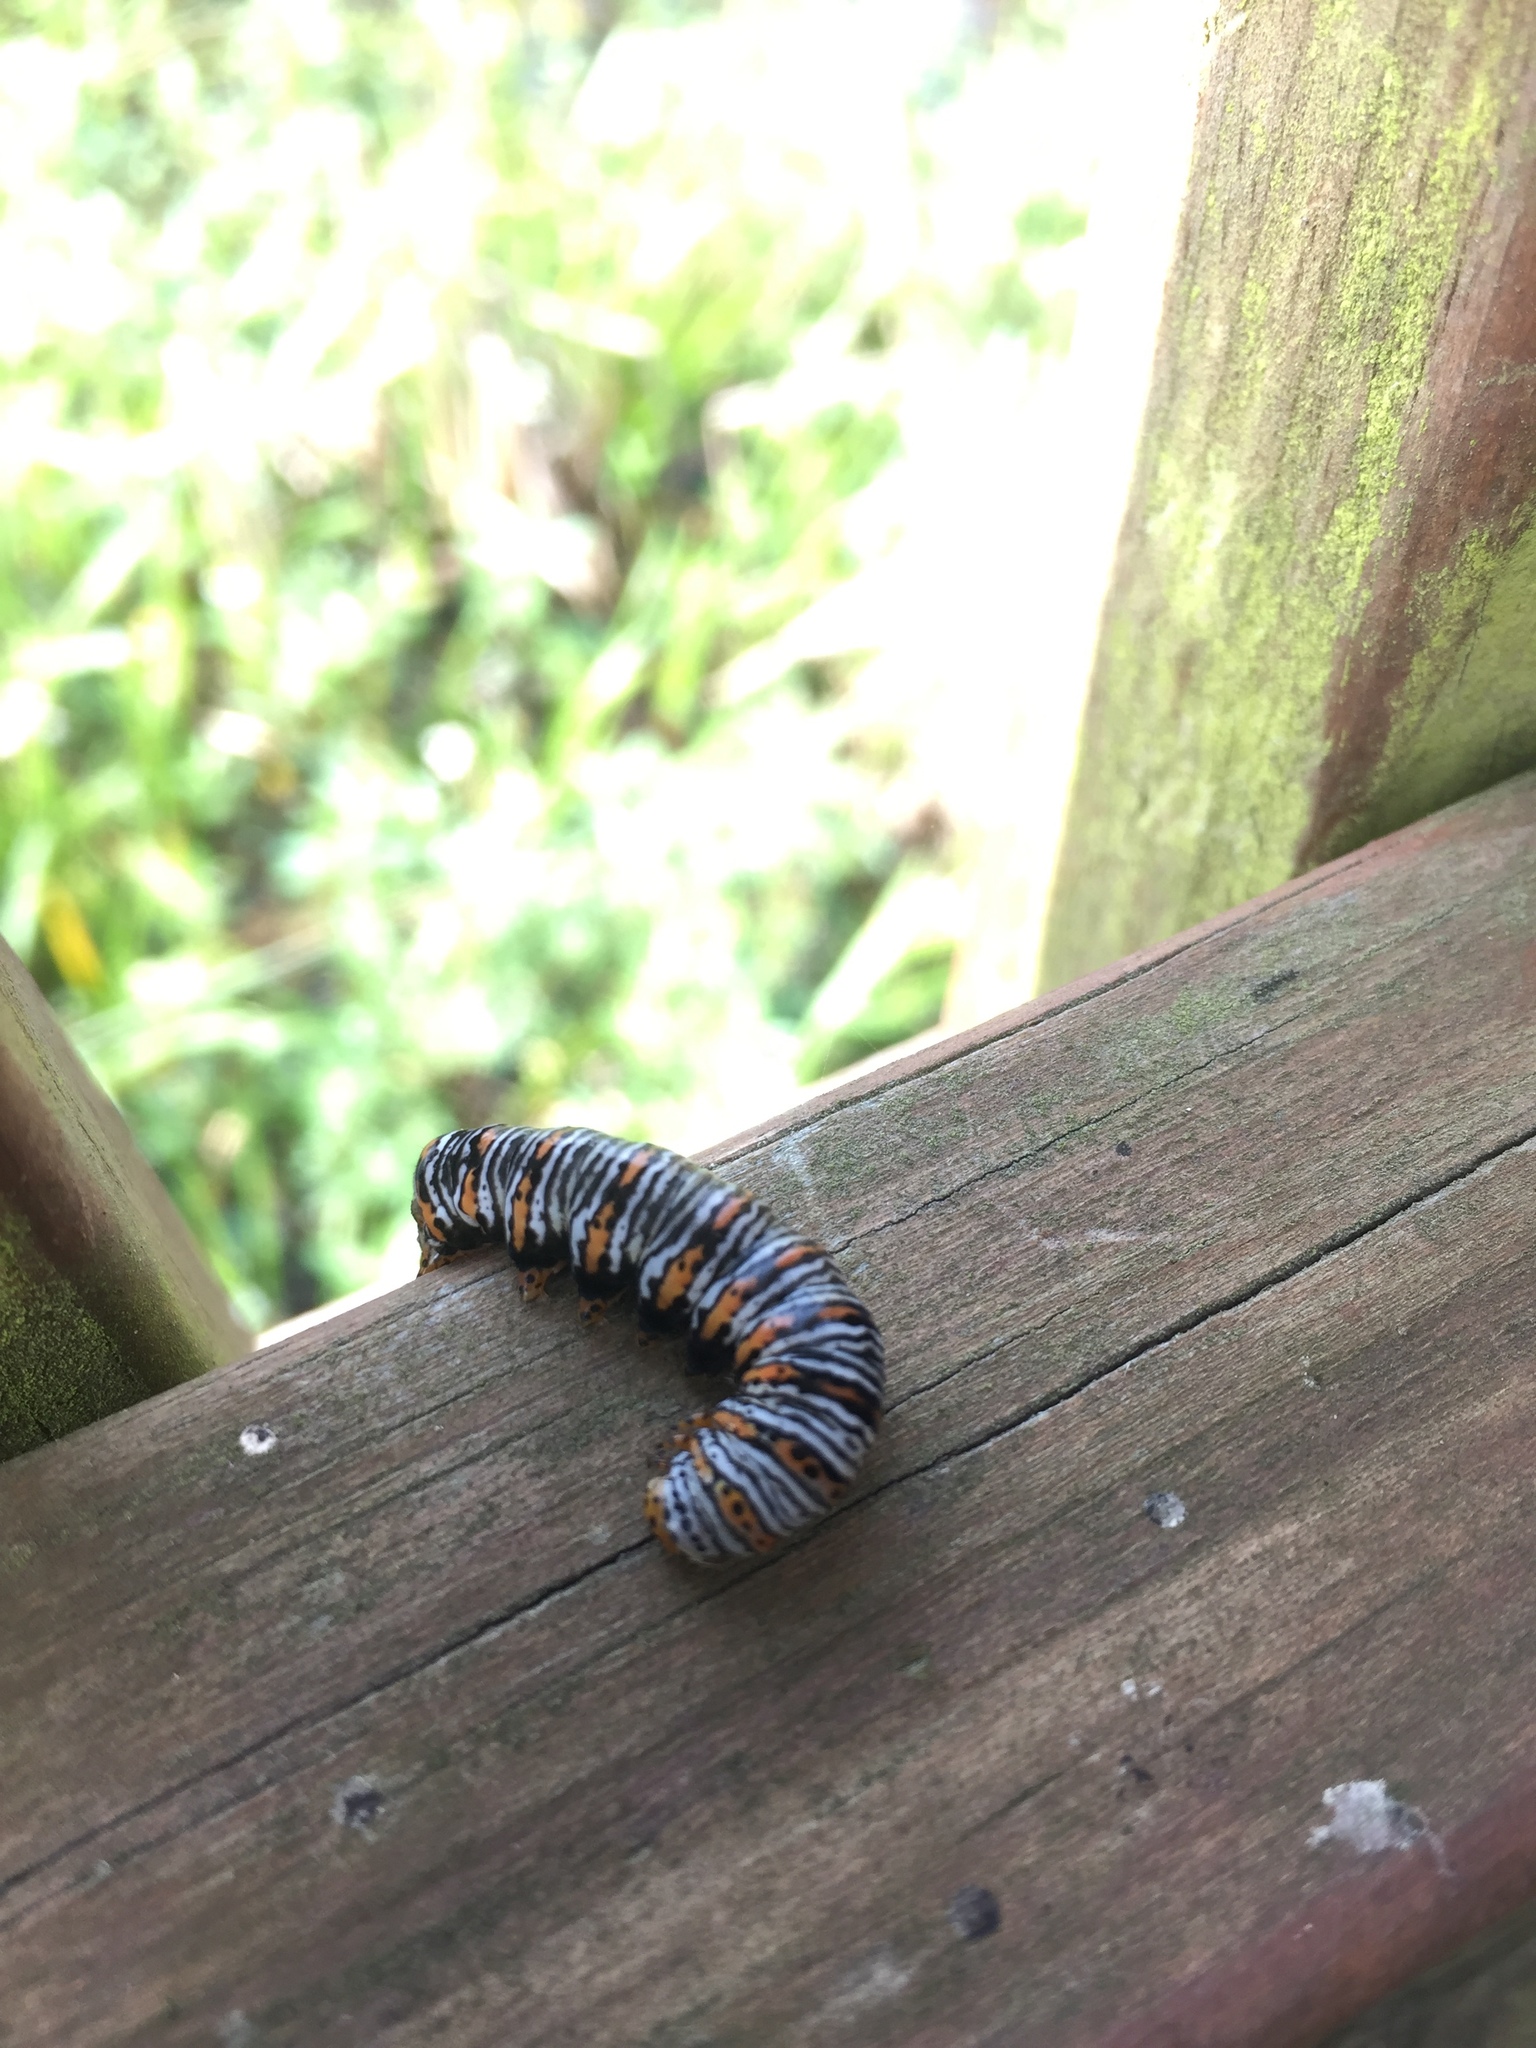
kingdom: Animalia
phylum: Arthropoda
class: Insecta
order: Lepidoptera
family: Noctuidae
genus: Eudryas
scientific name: Eudryas unio
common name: Pearly wood-nymph
